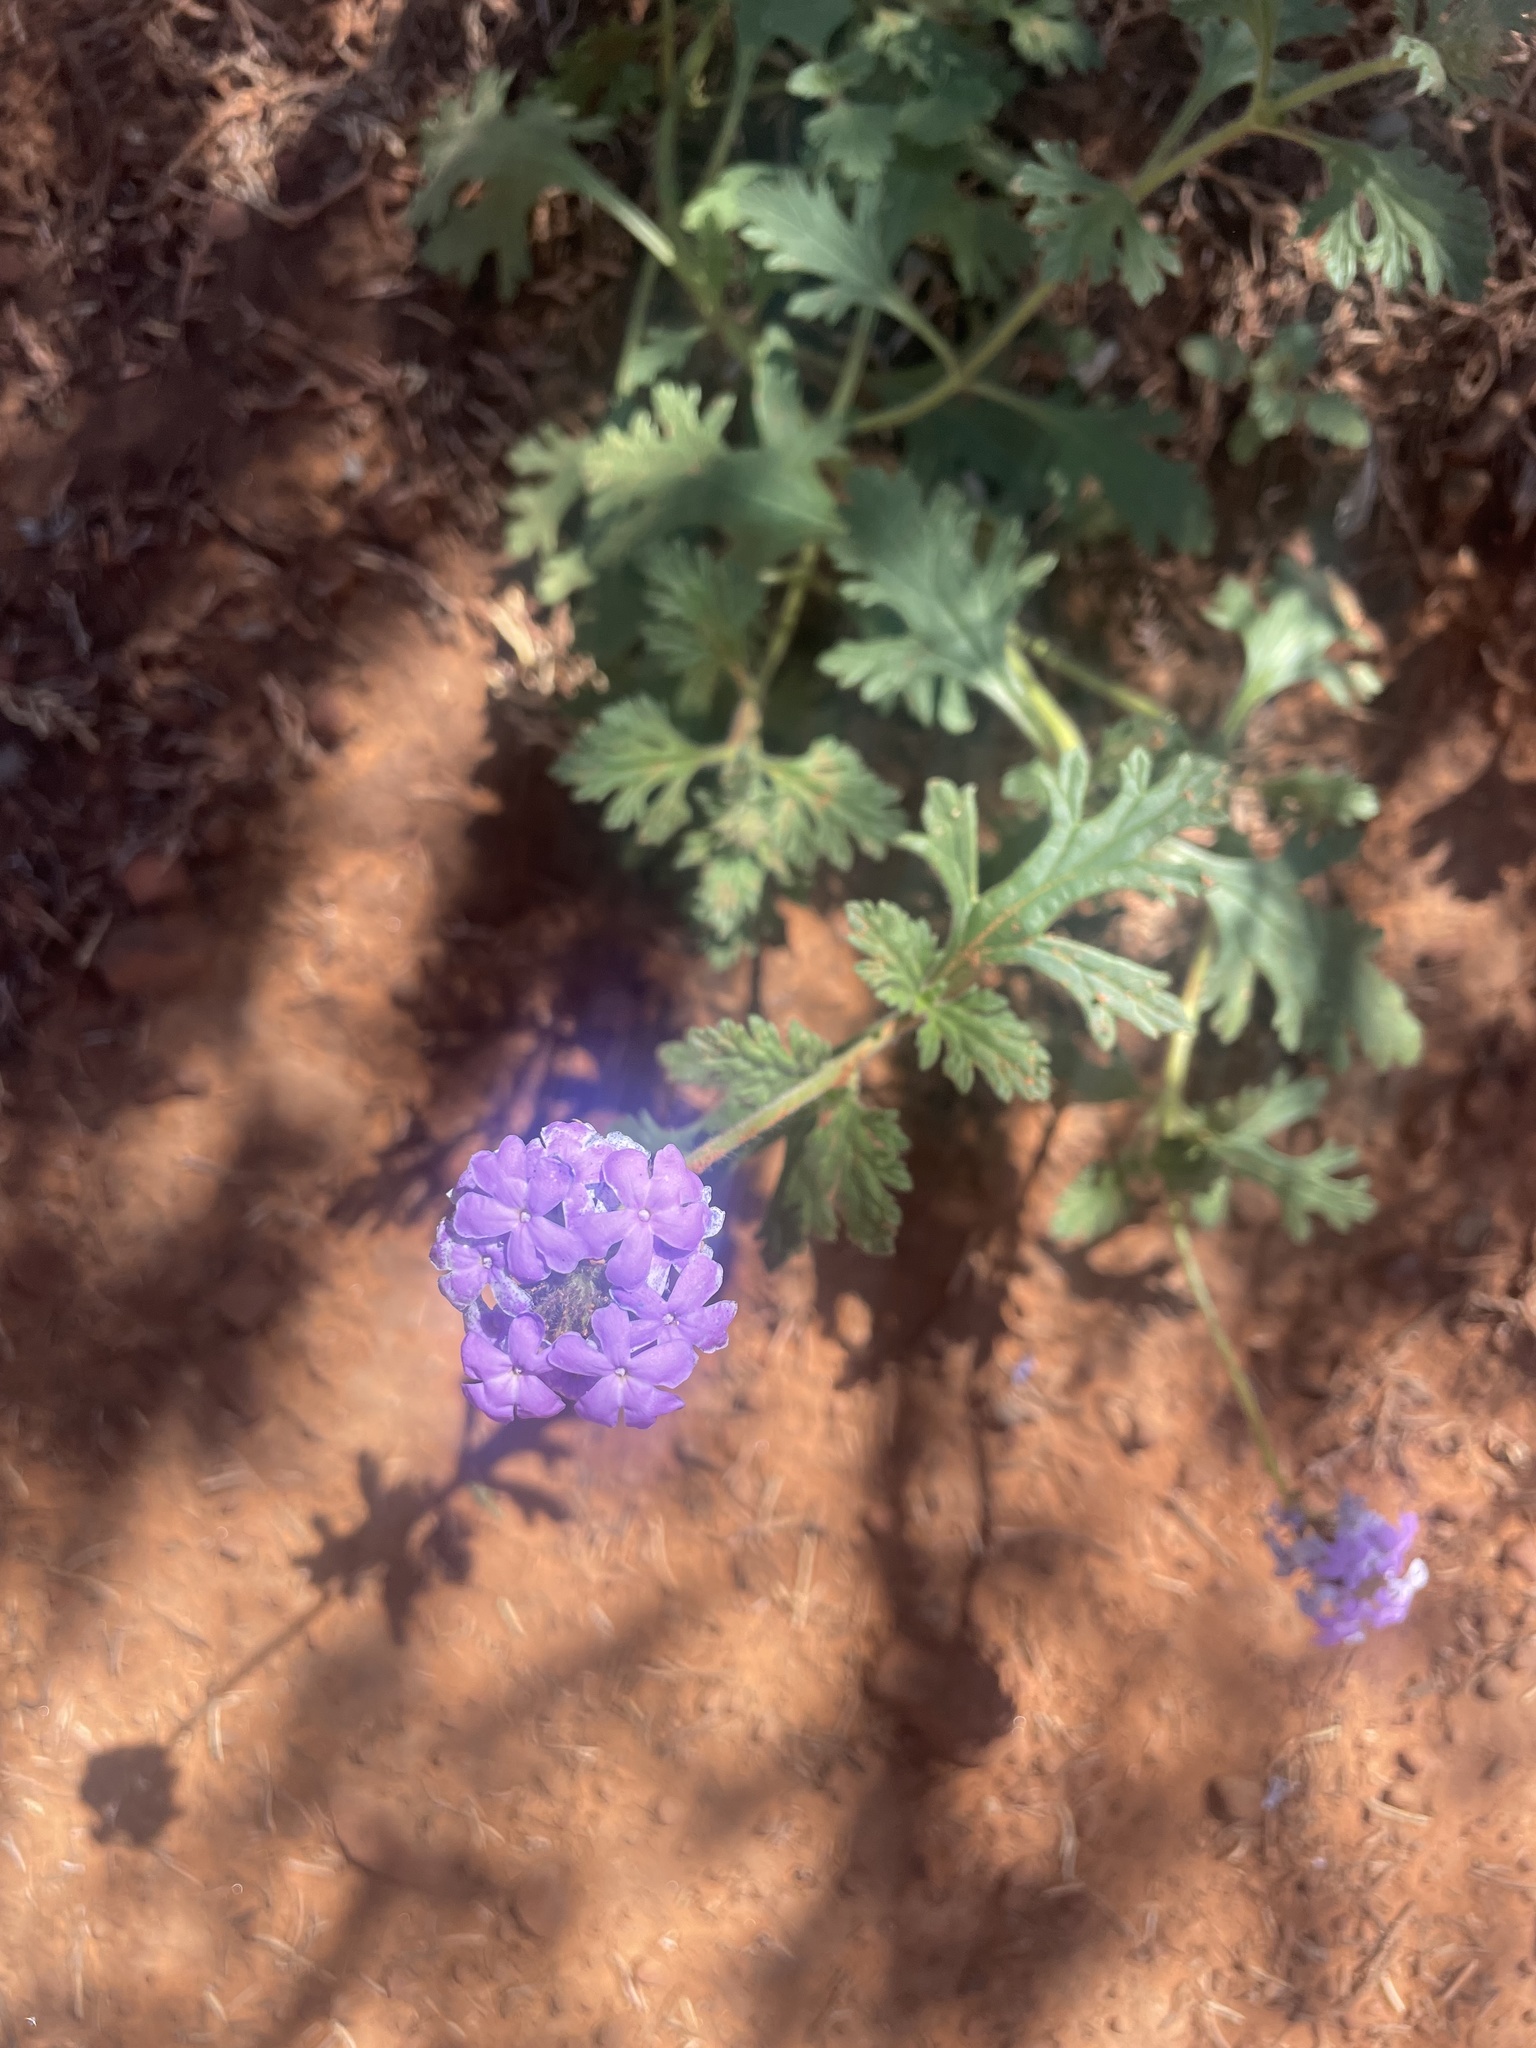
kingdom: Plantae
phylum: Tracheophyta
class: Magnoliopsida
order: Lamiales
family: Verbenaceae
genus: Verbena
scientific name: Verbena gooddingii
